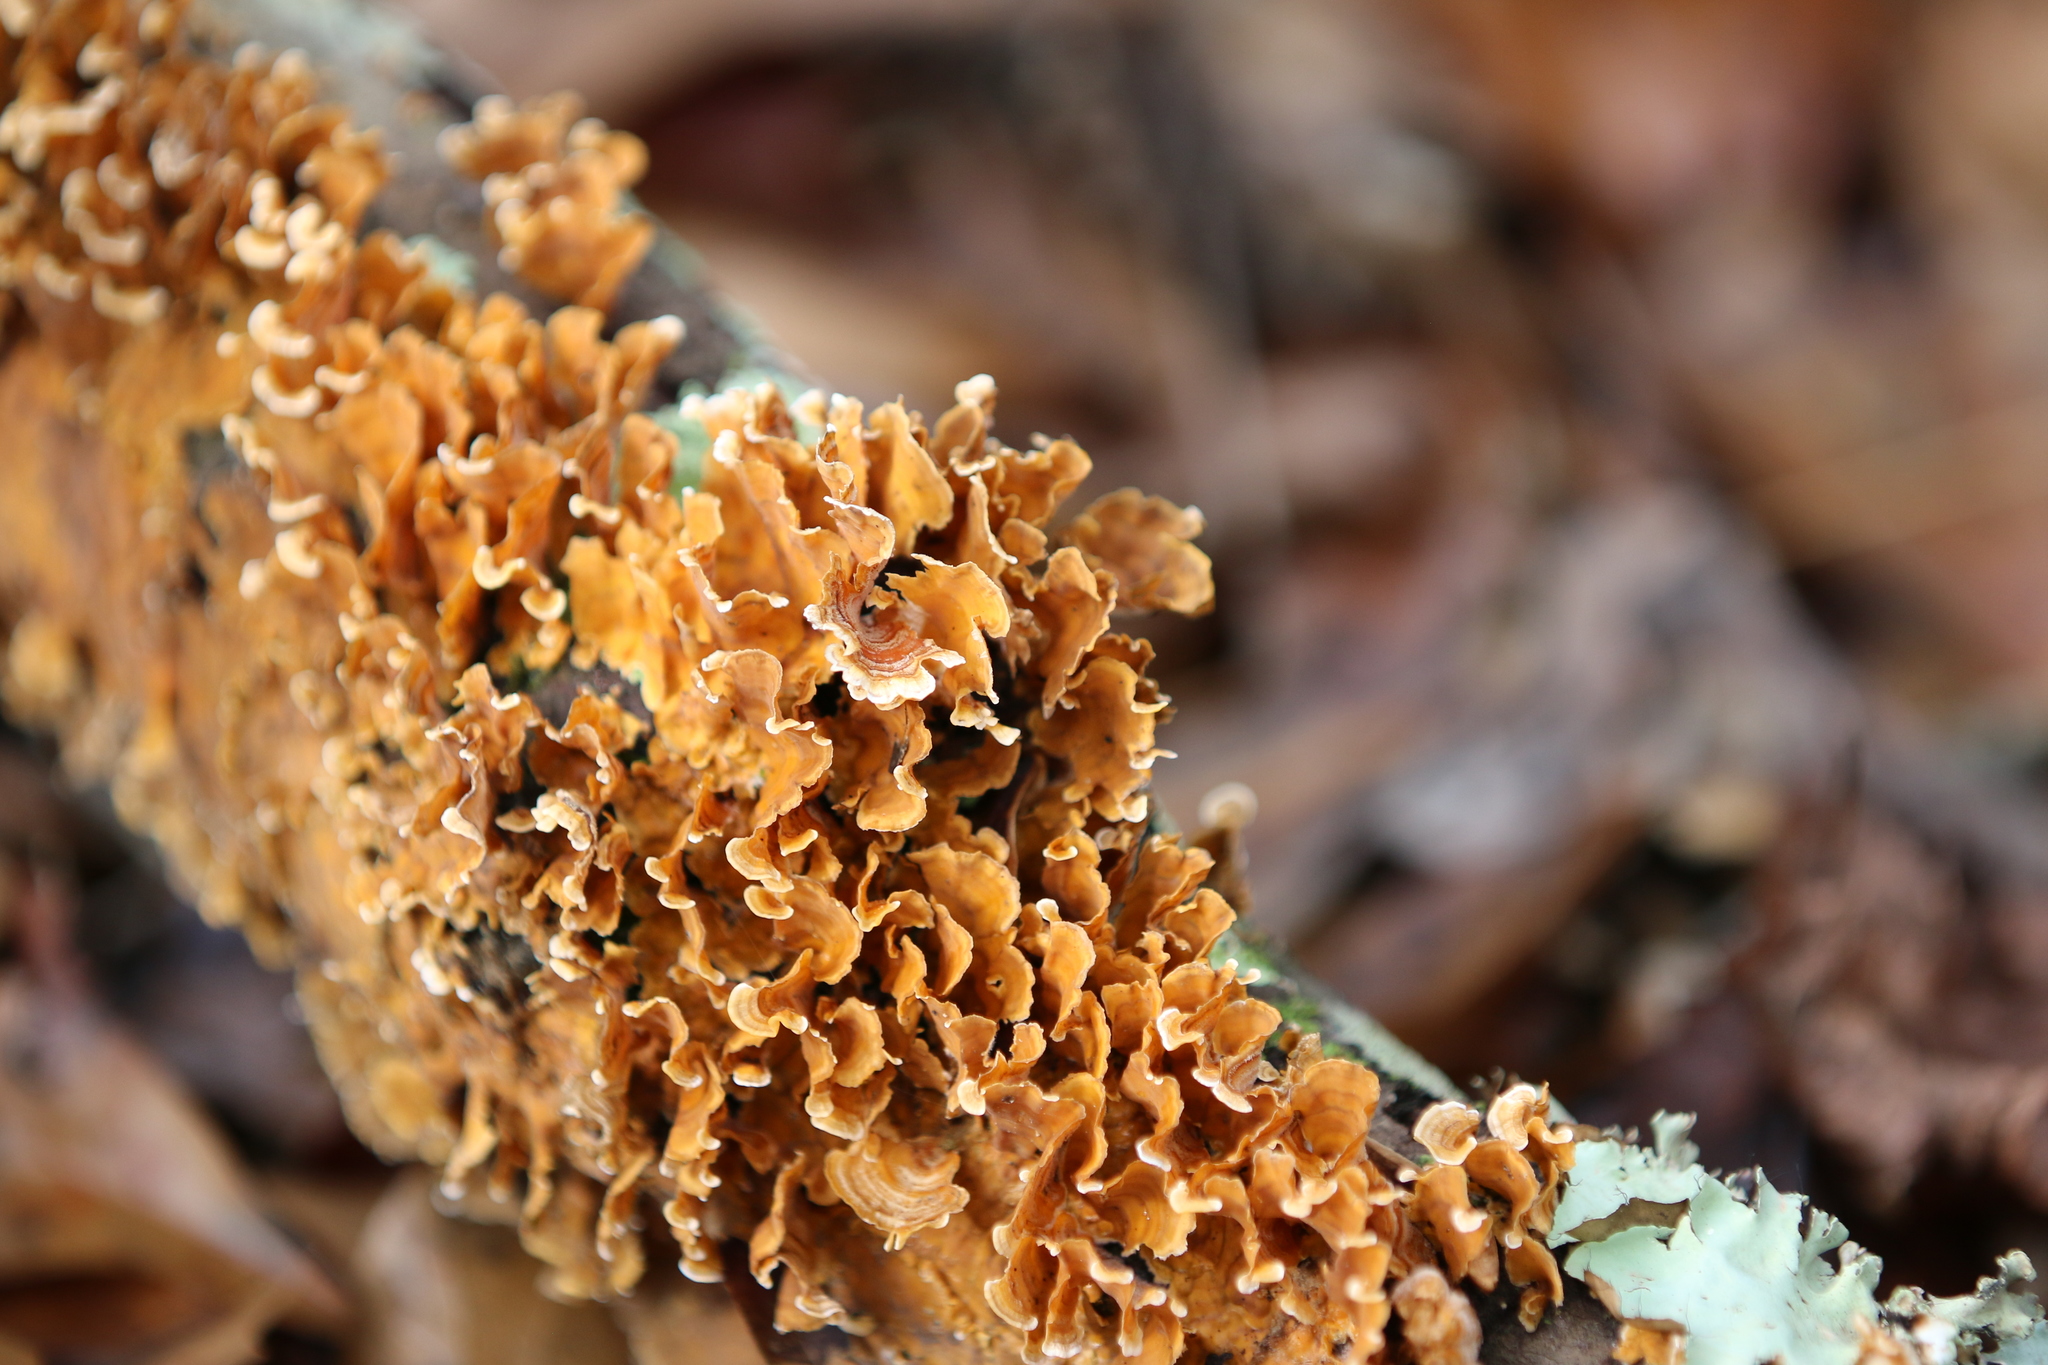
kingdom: Fungi
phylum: Basidiomycota
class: Agaricomycetes
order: Russulales
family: Stereaceae
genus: Stereum
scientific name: Stereum complicatum
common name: Crowded parchment
